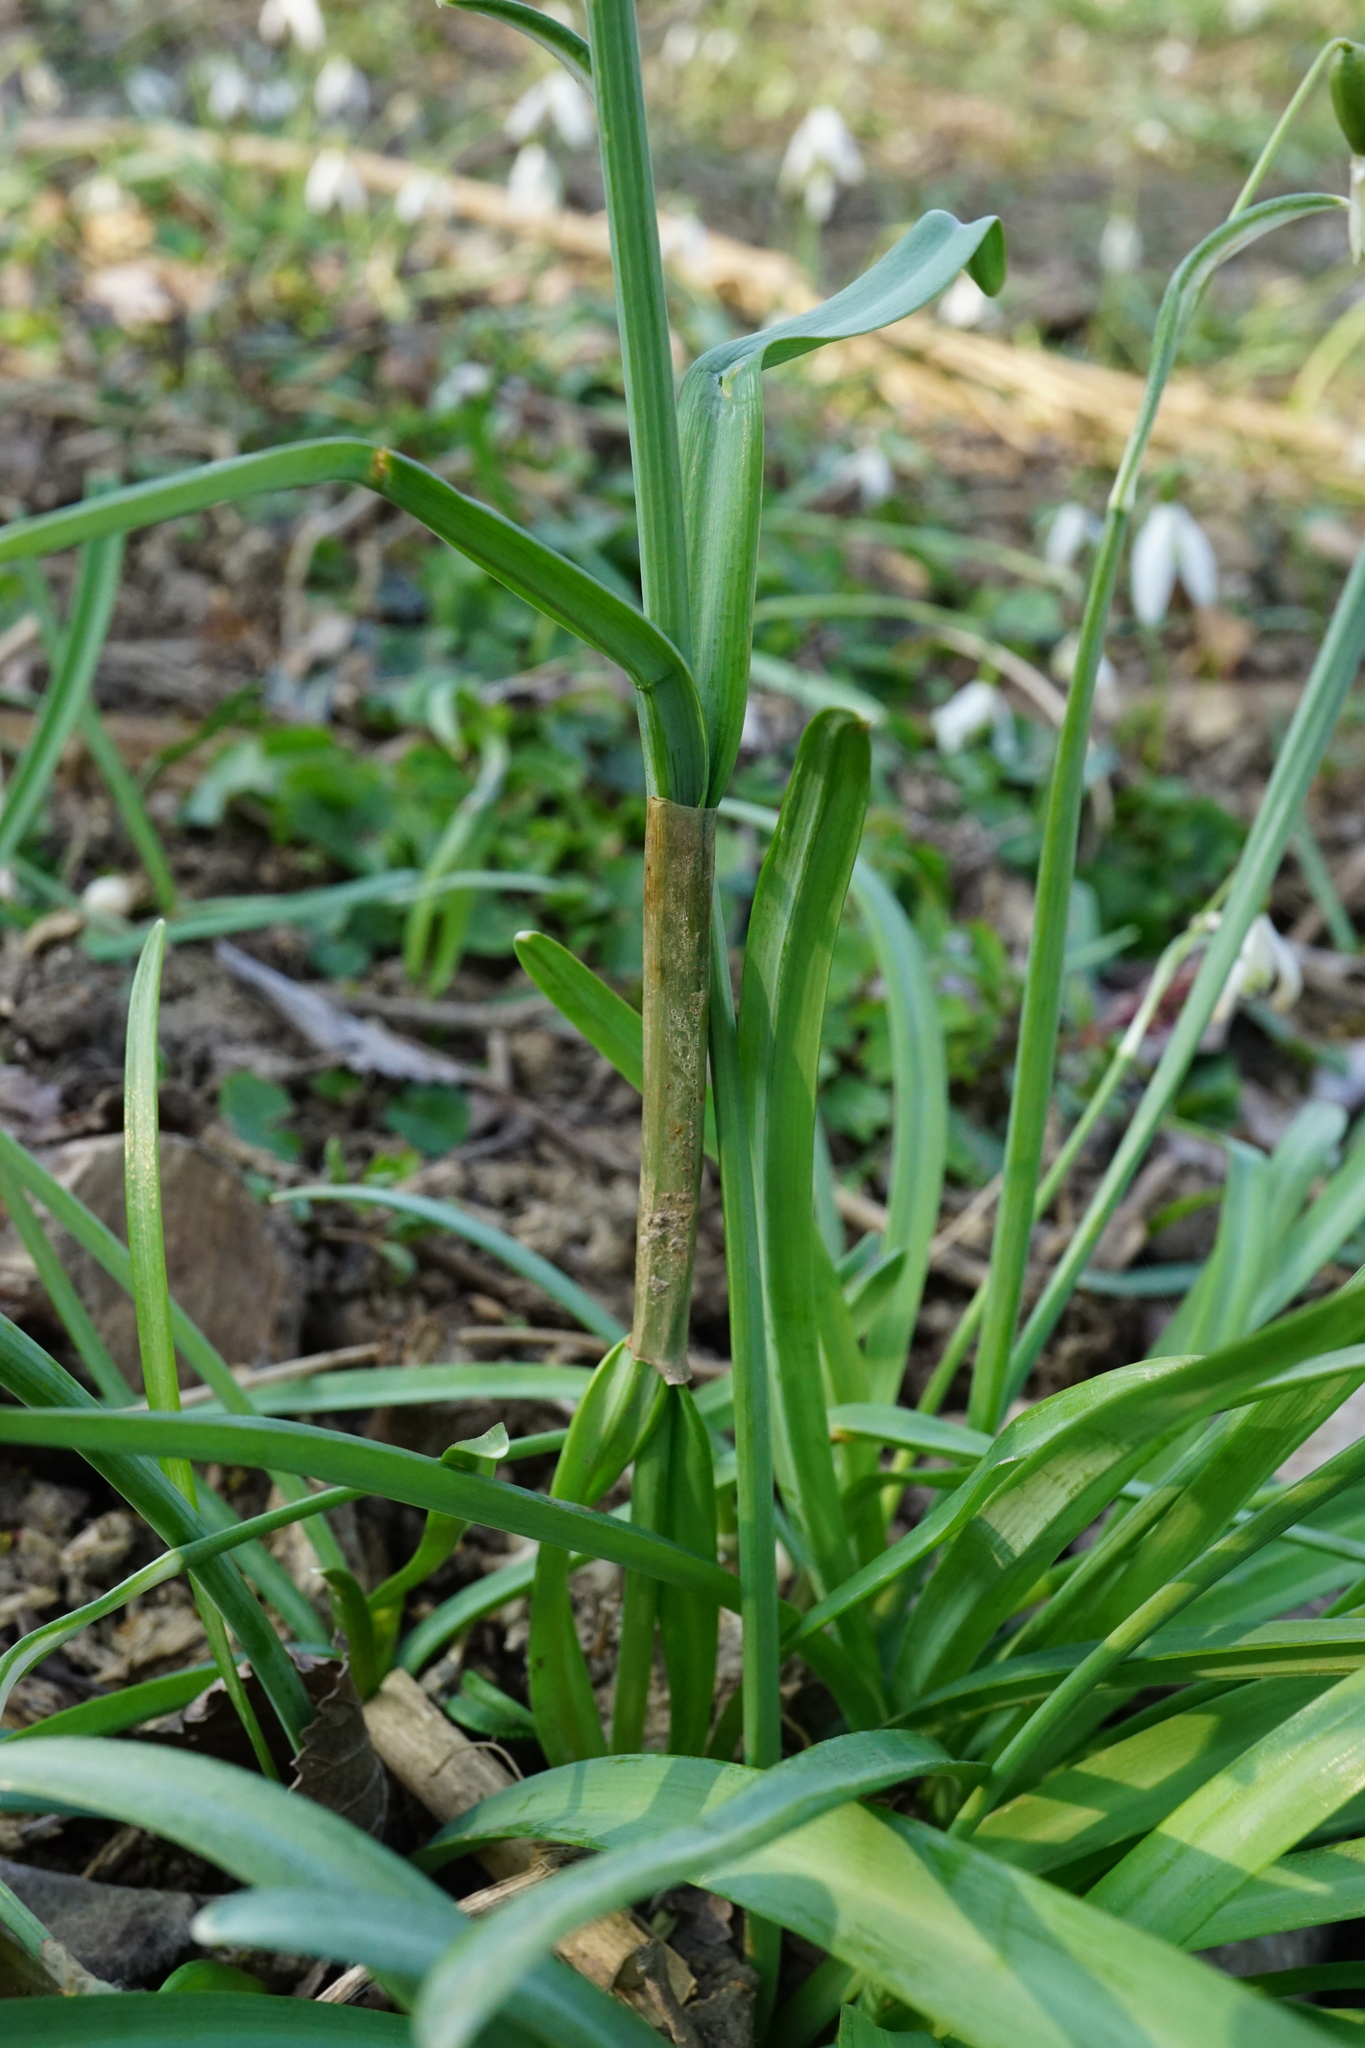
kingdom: Plantae
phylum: Tracheophyta
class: Liliopsida
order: Asparagales
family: Amaryllidaceae
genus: Galanthus
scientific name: Galanthus nivalis
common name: Snowdrop
